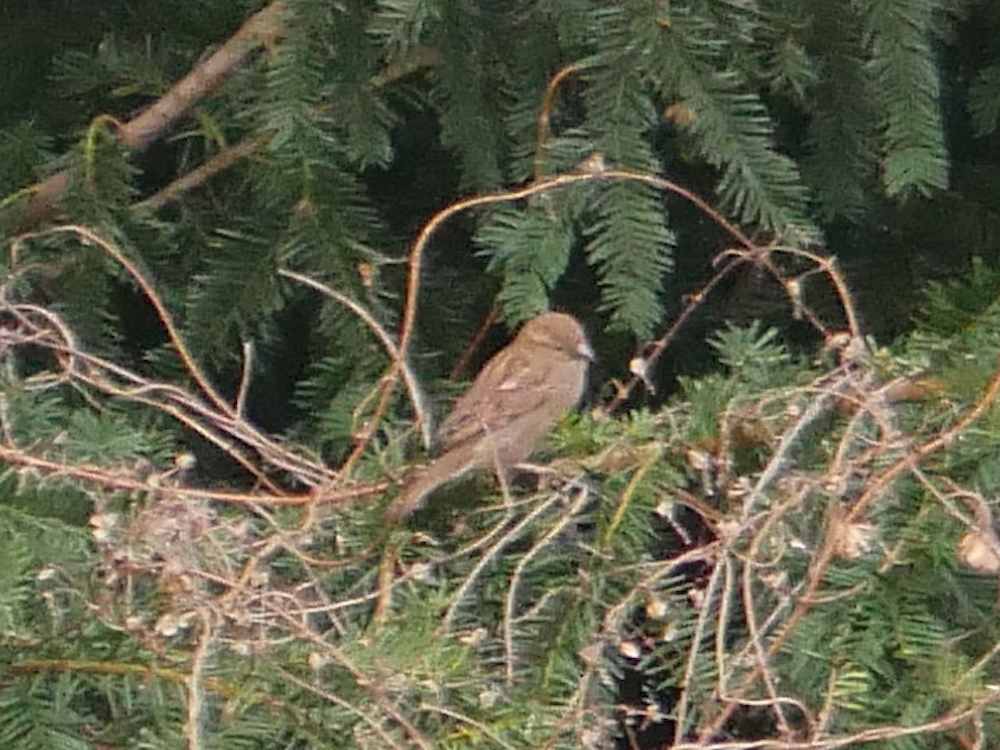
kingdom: Animalia
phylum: Chordata
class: Aves
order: Passeriformes
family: Passeridae
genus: Passer
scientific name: Passer domesticus
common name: House sparrow
